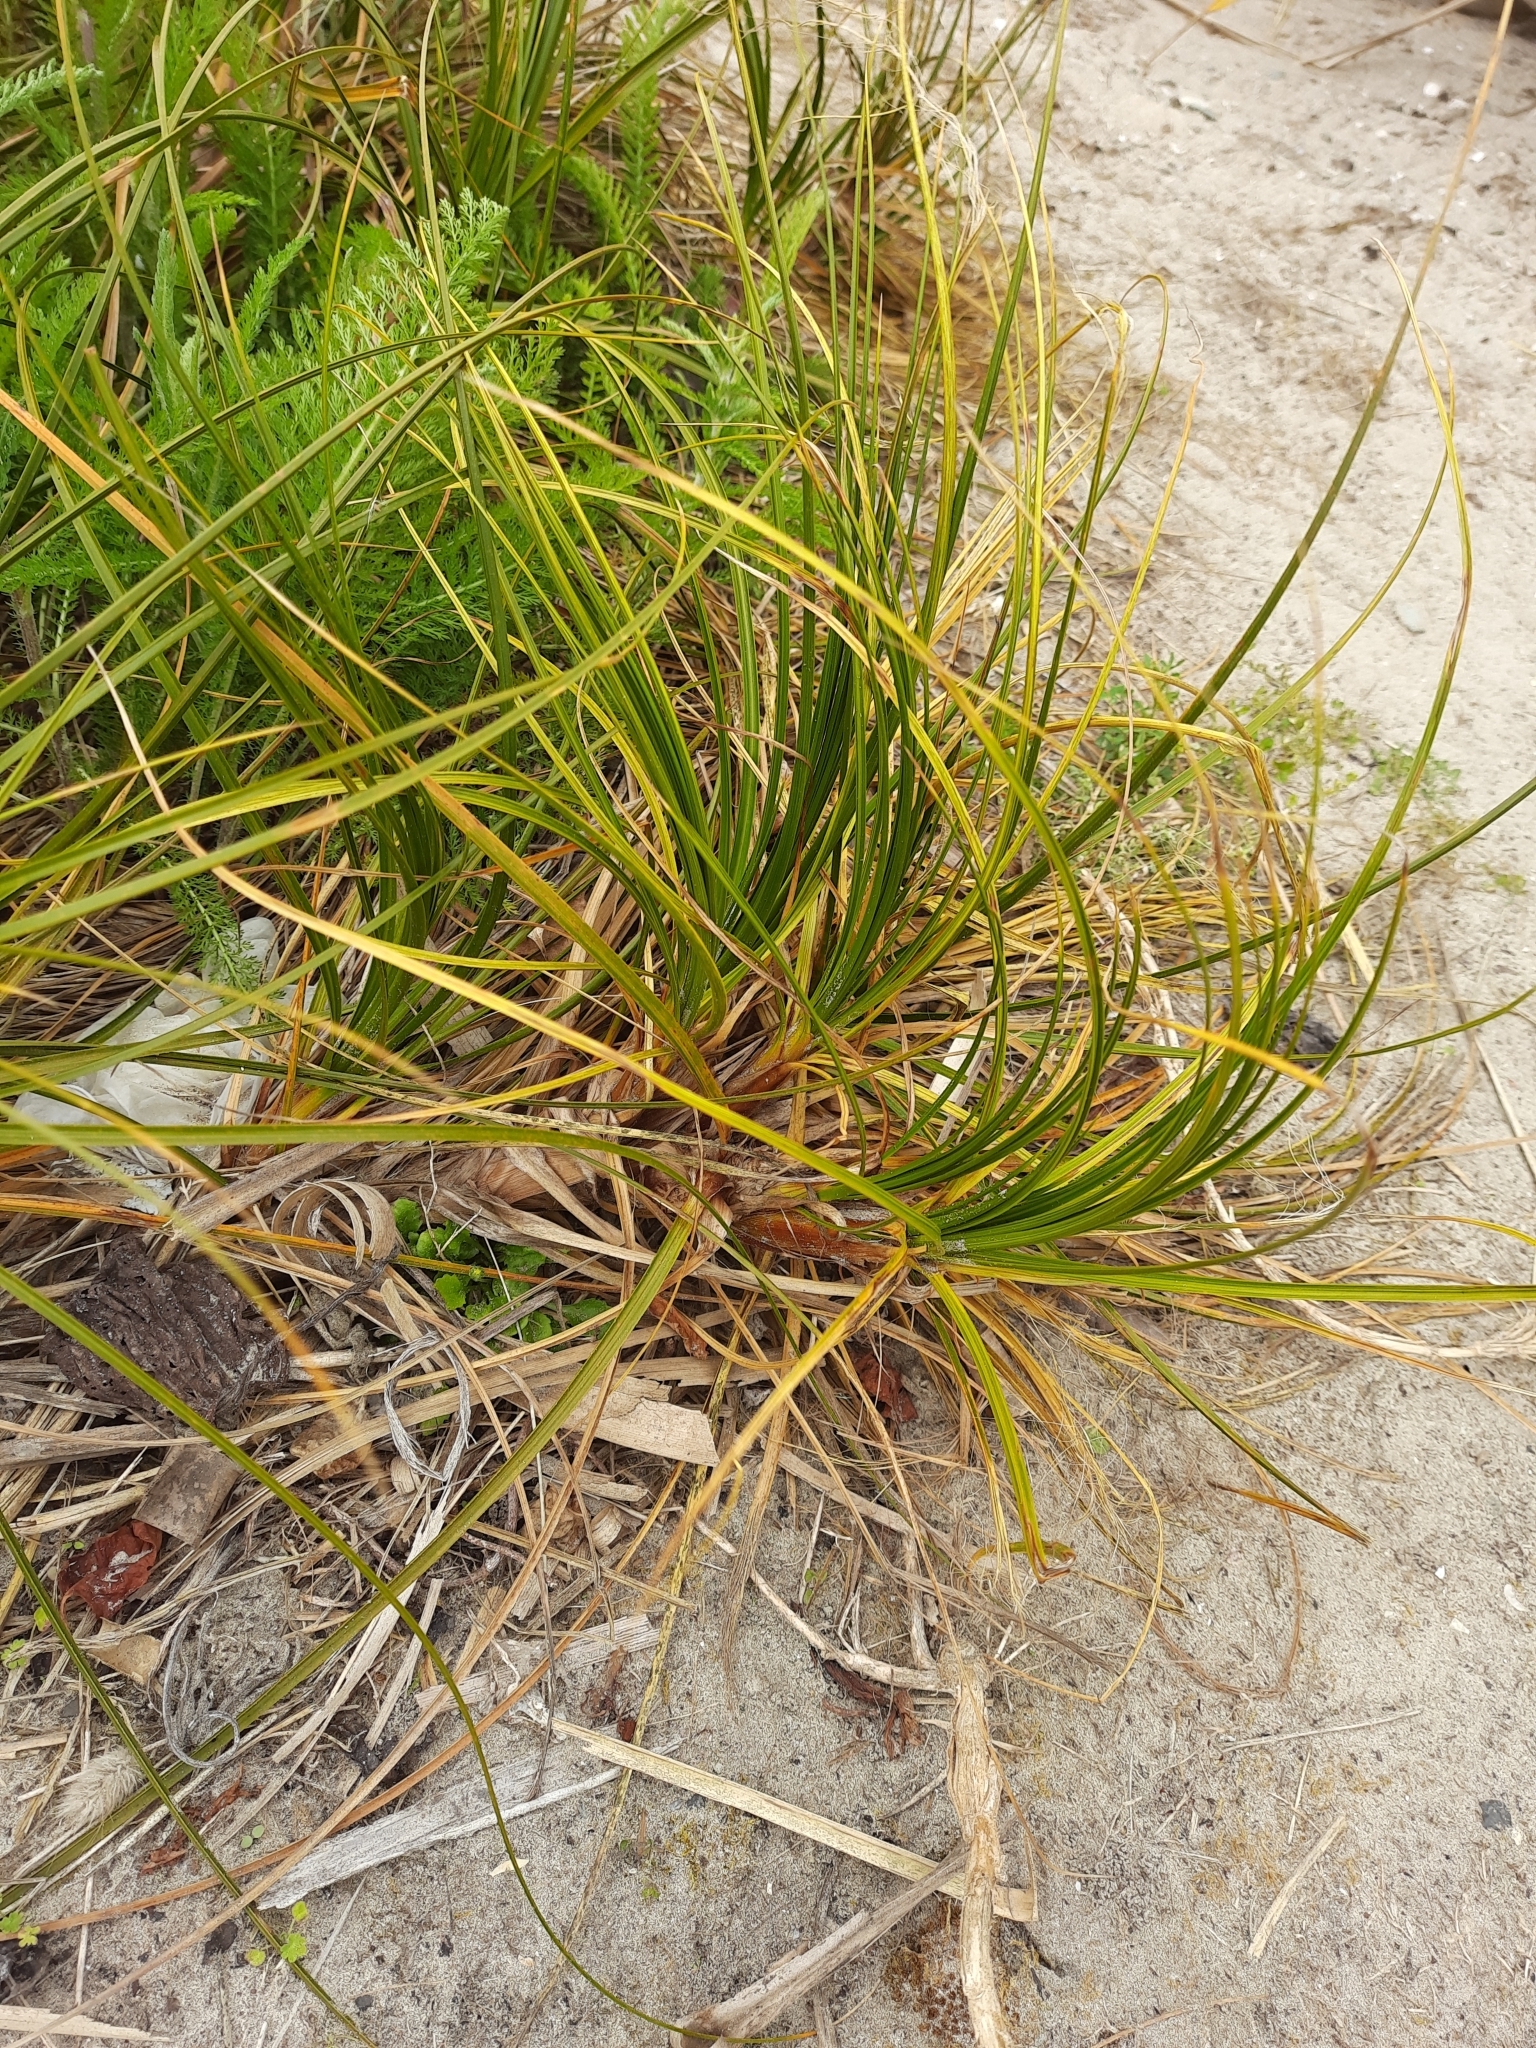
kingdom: Plantae
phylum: Tracheophyta
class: Liliopsida
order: Poales
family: Cyperaceae
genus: Ficinia
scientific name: Ficinia spiralis
